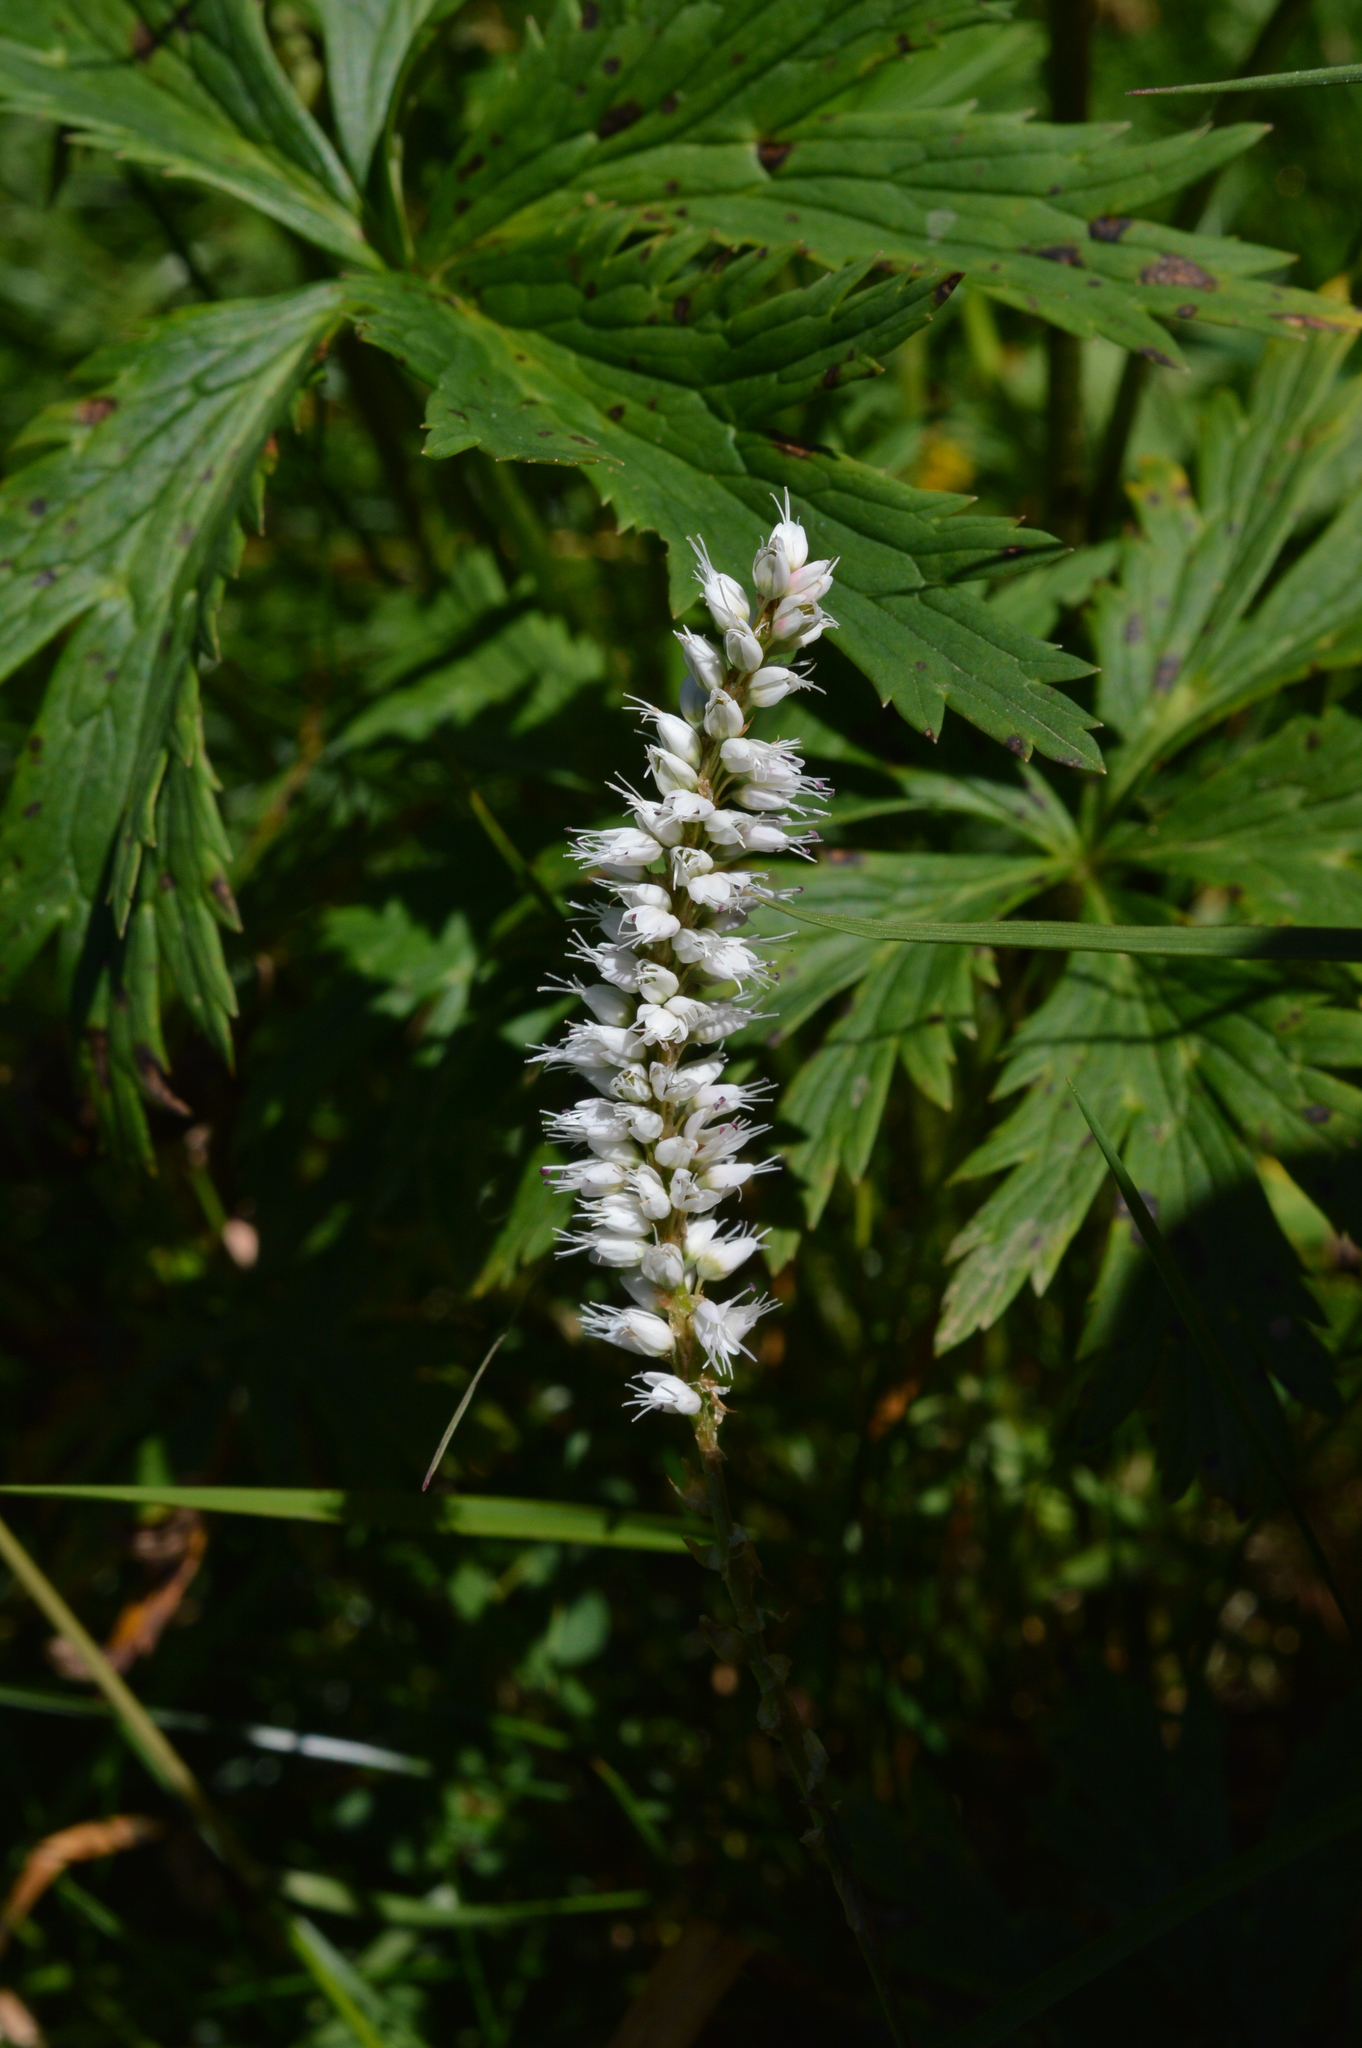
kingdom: Plantae
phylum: Tracheophyta
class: Magnoliopsida
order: Caryophyllales
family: Polygonaceae
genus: Bistorta
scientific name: Bistorta vivipara
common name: Alpine bistort
